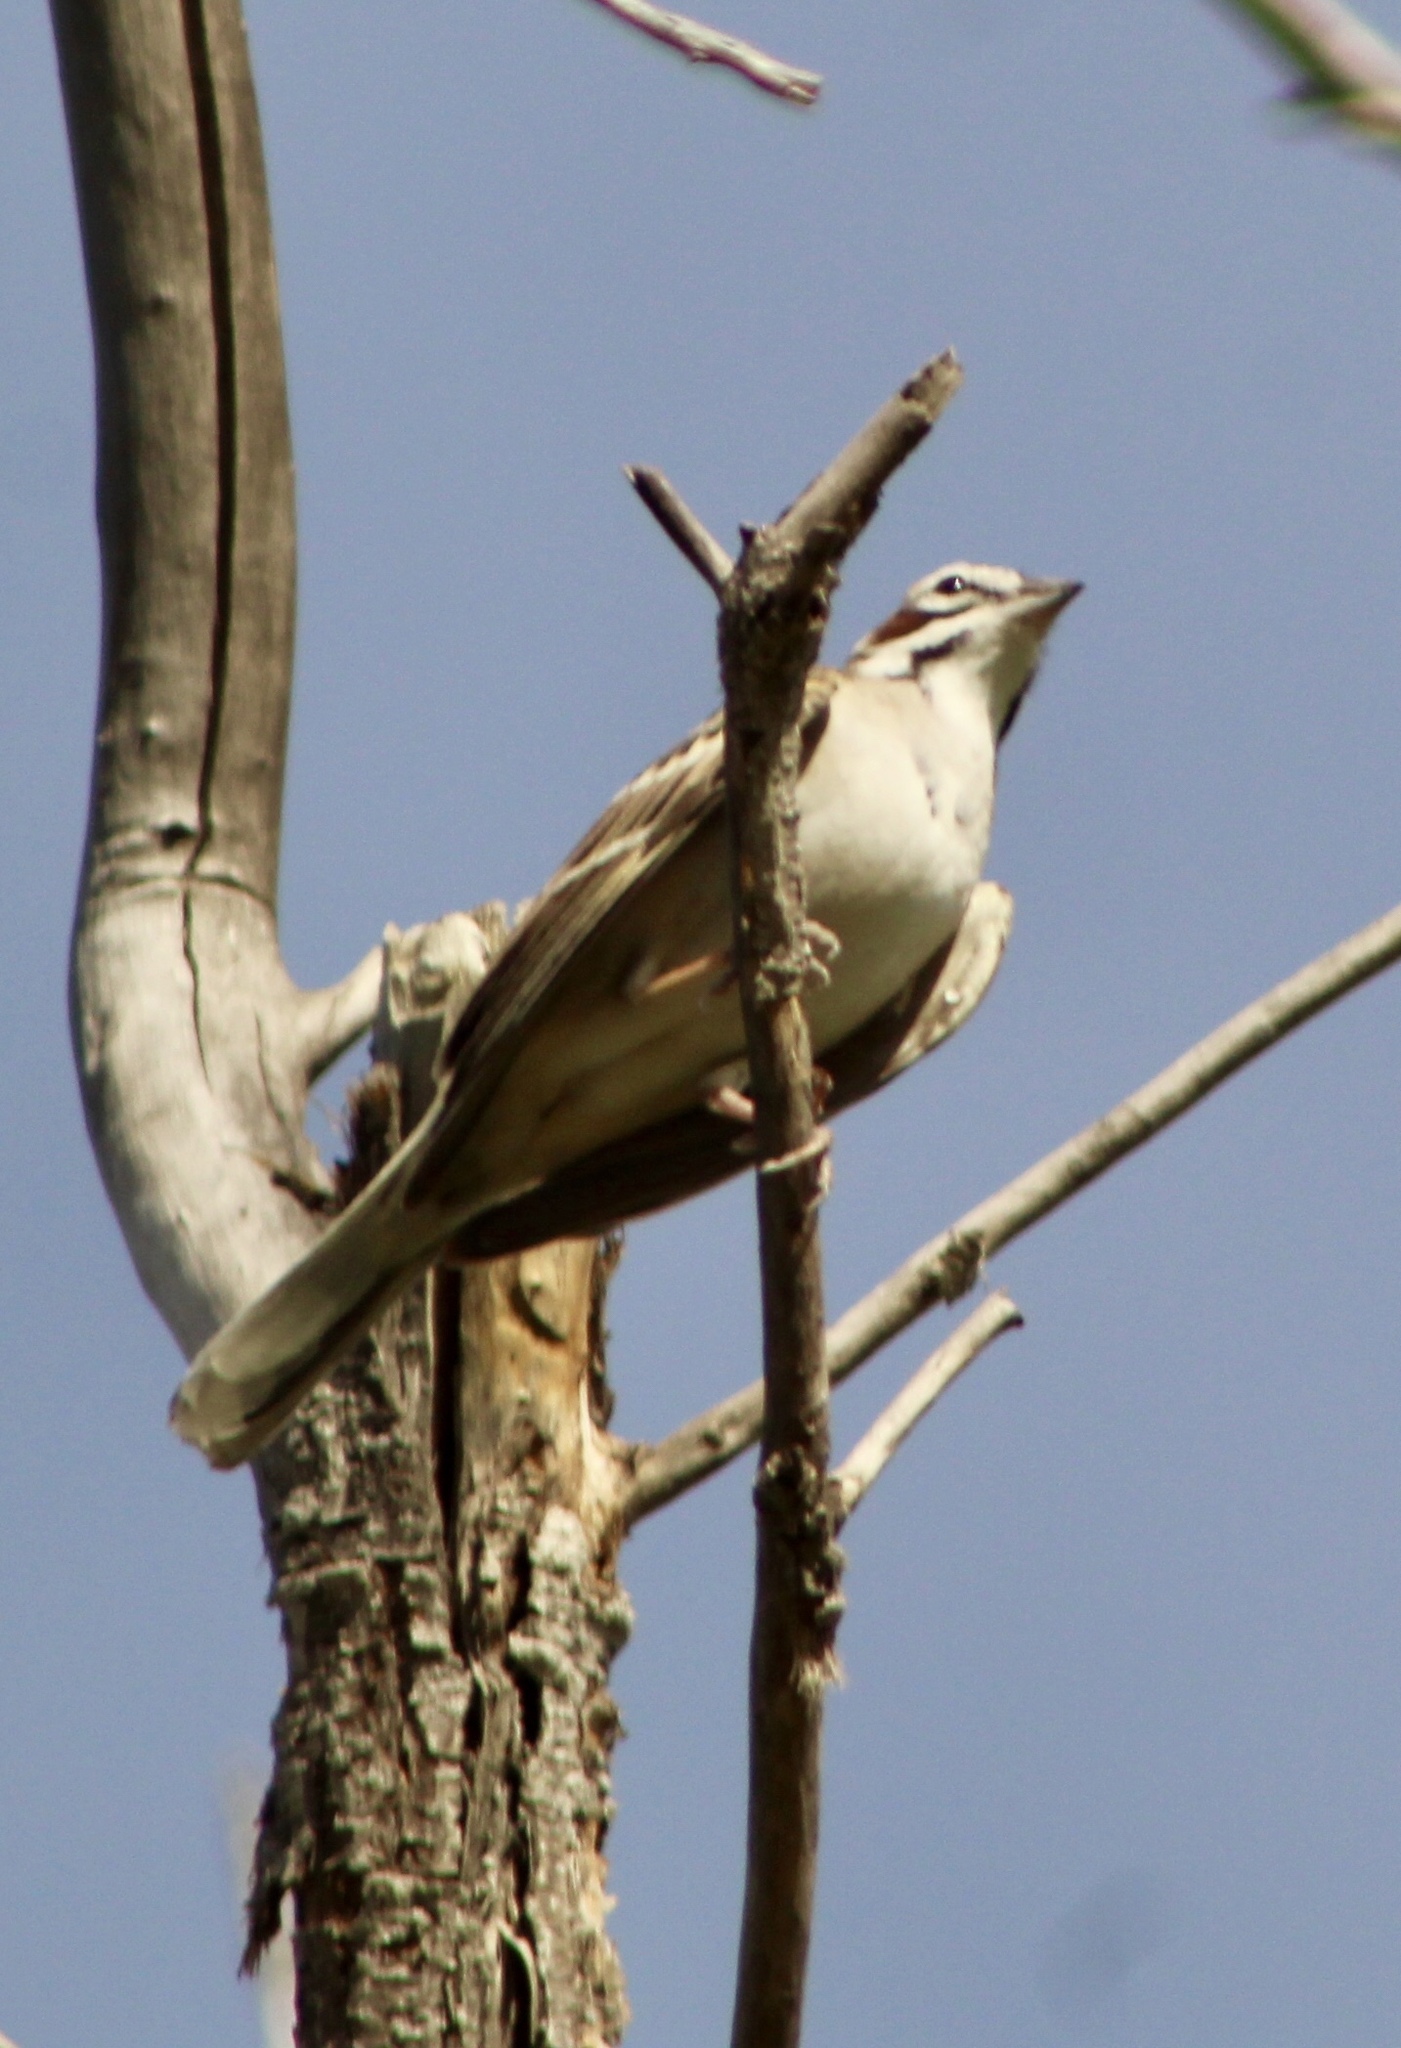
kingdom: Animalia
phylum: Chordata
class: Aves
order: Passeriformes
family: Passerellidae
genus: Chondestes
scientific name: Chondestes grammacus
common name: Lark sparrow
